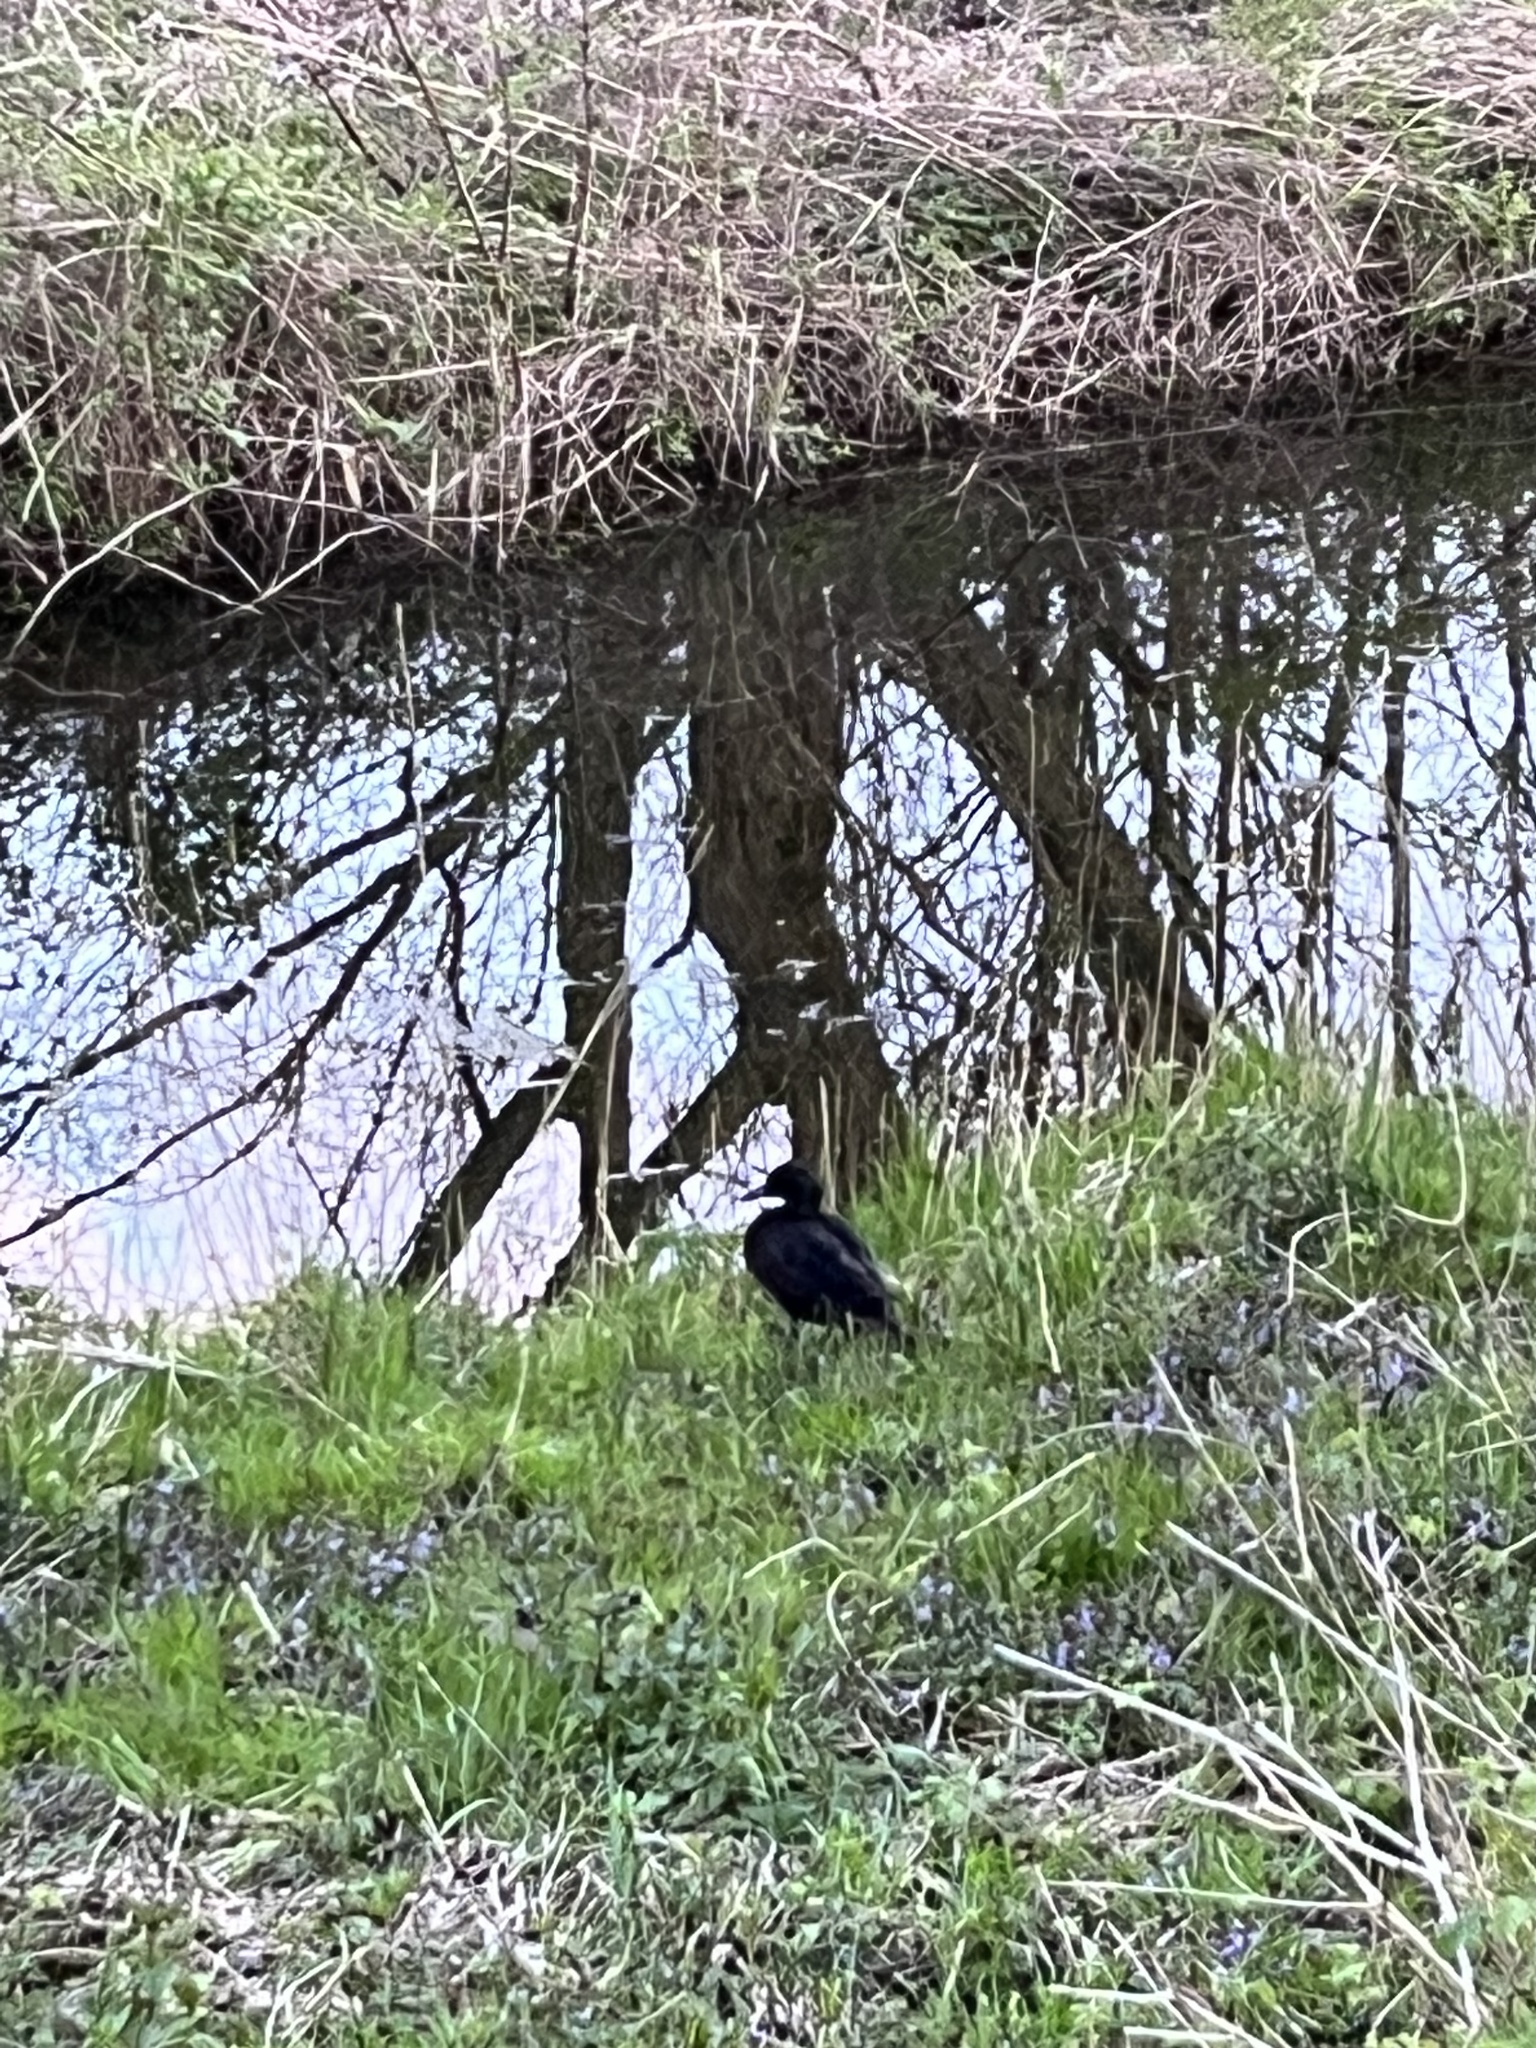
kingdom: Animalia
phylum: Chordata
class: Aves
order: Anseriformes
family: Anatidae
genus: Anas
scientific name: Anas platyrhynchos
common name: Mallard
